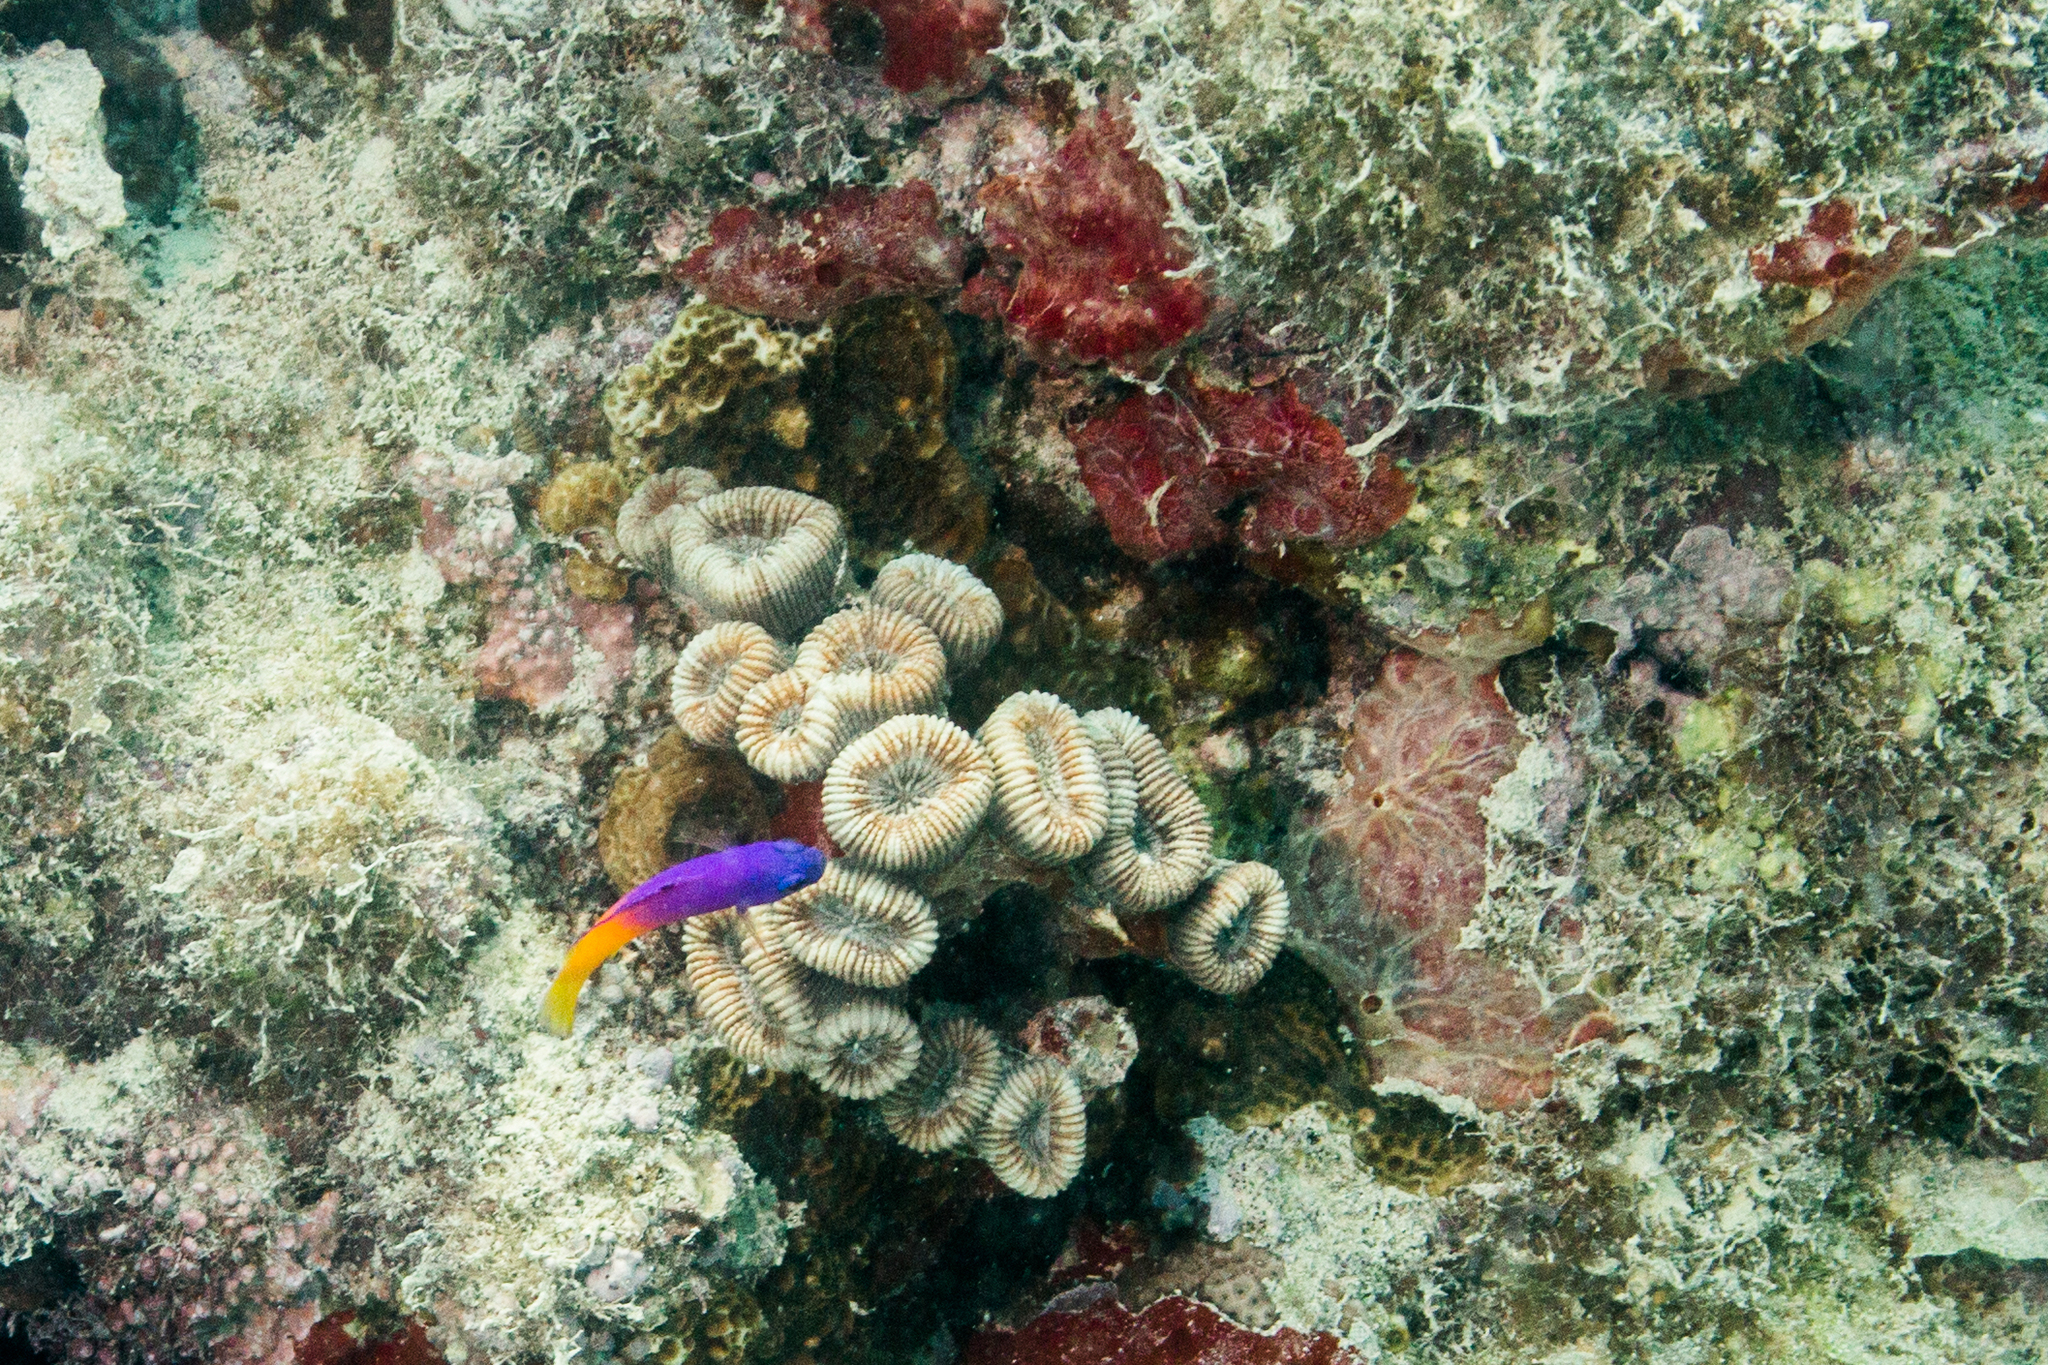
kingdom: Animalia
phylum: Chordata
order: Perciformes
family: Grammatidae
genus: Gramma
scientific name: Gramma brasiliensis
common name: Brazilian basslet
